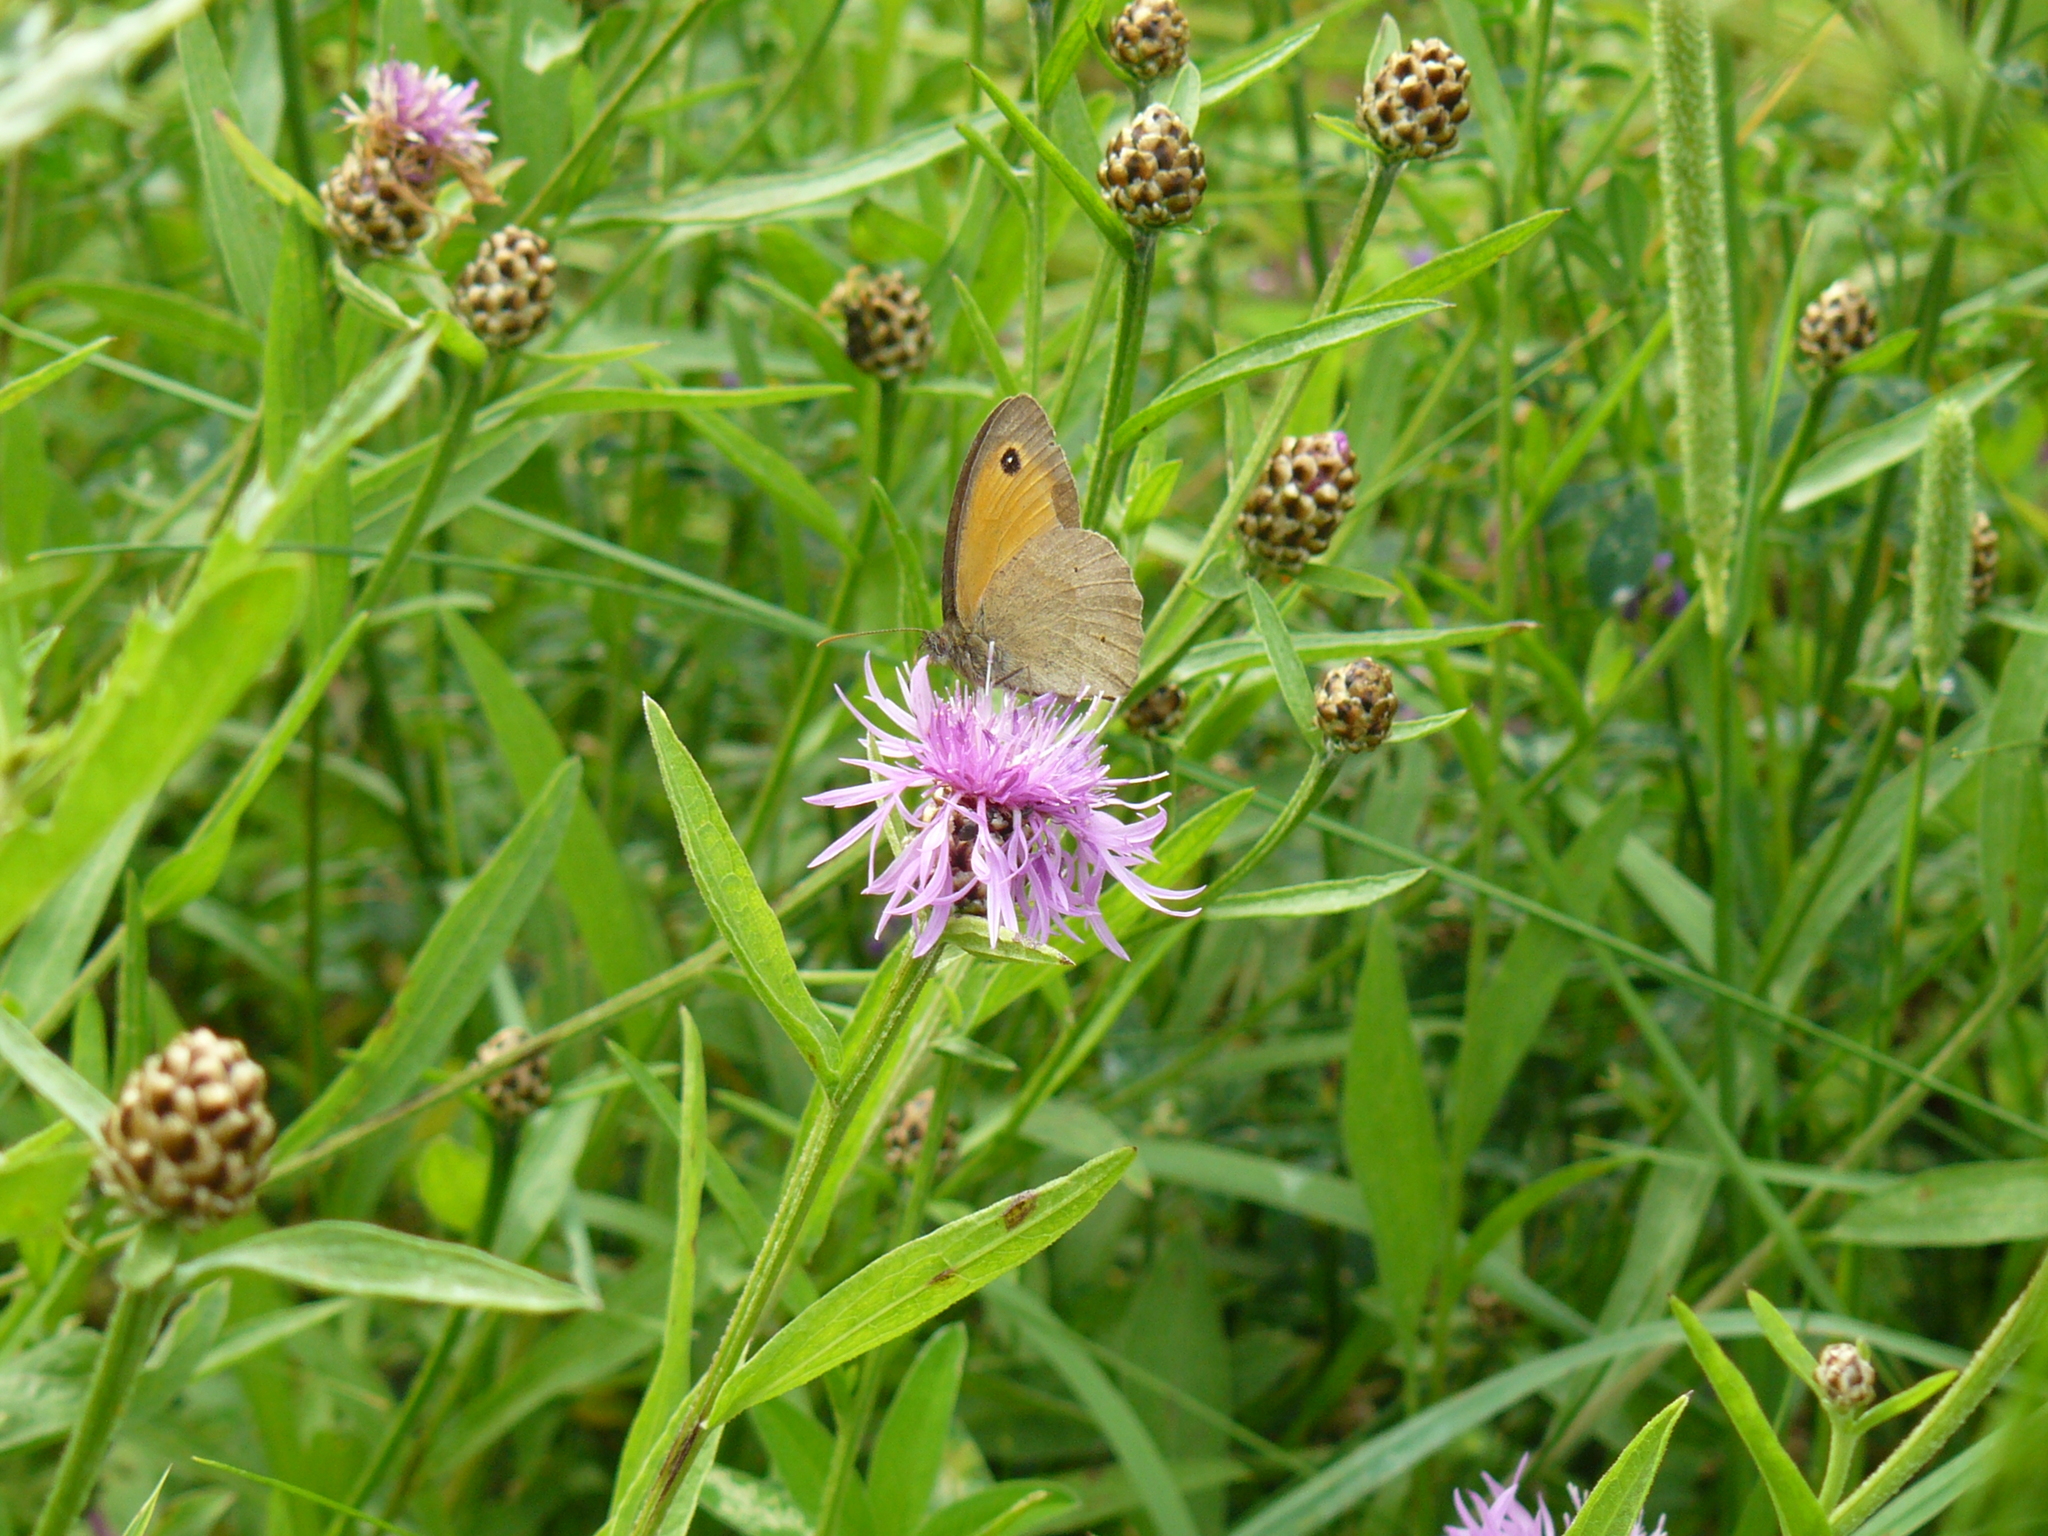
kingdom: Animalia
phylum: Arthropoda
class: Insecta
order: Lepidoptera
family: Nymphalidae
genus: Maniola
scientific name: Maniola jurtina
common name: Meadow brown
